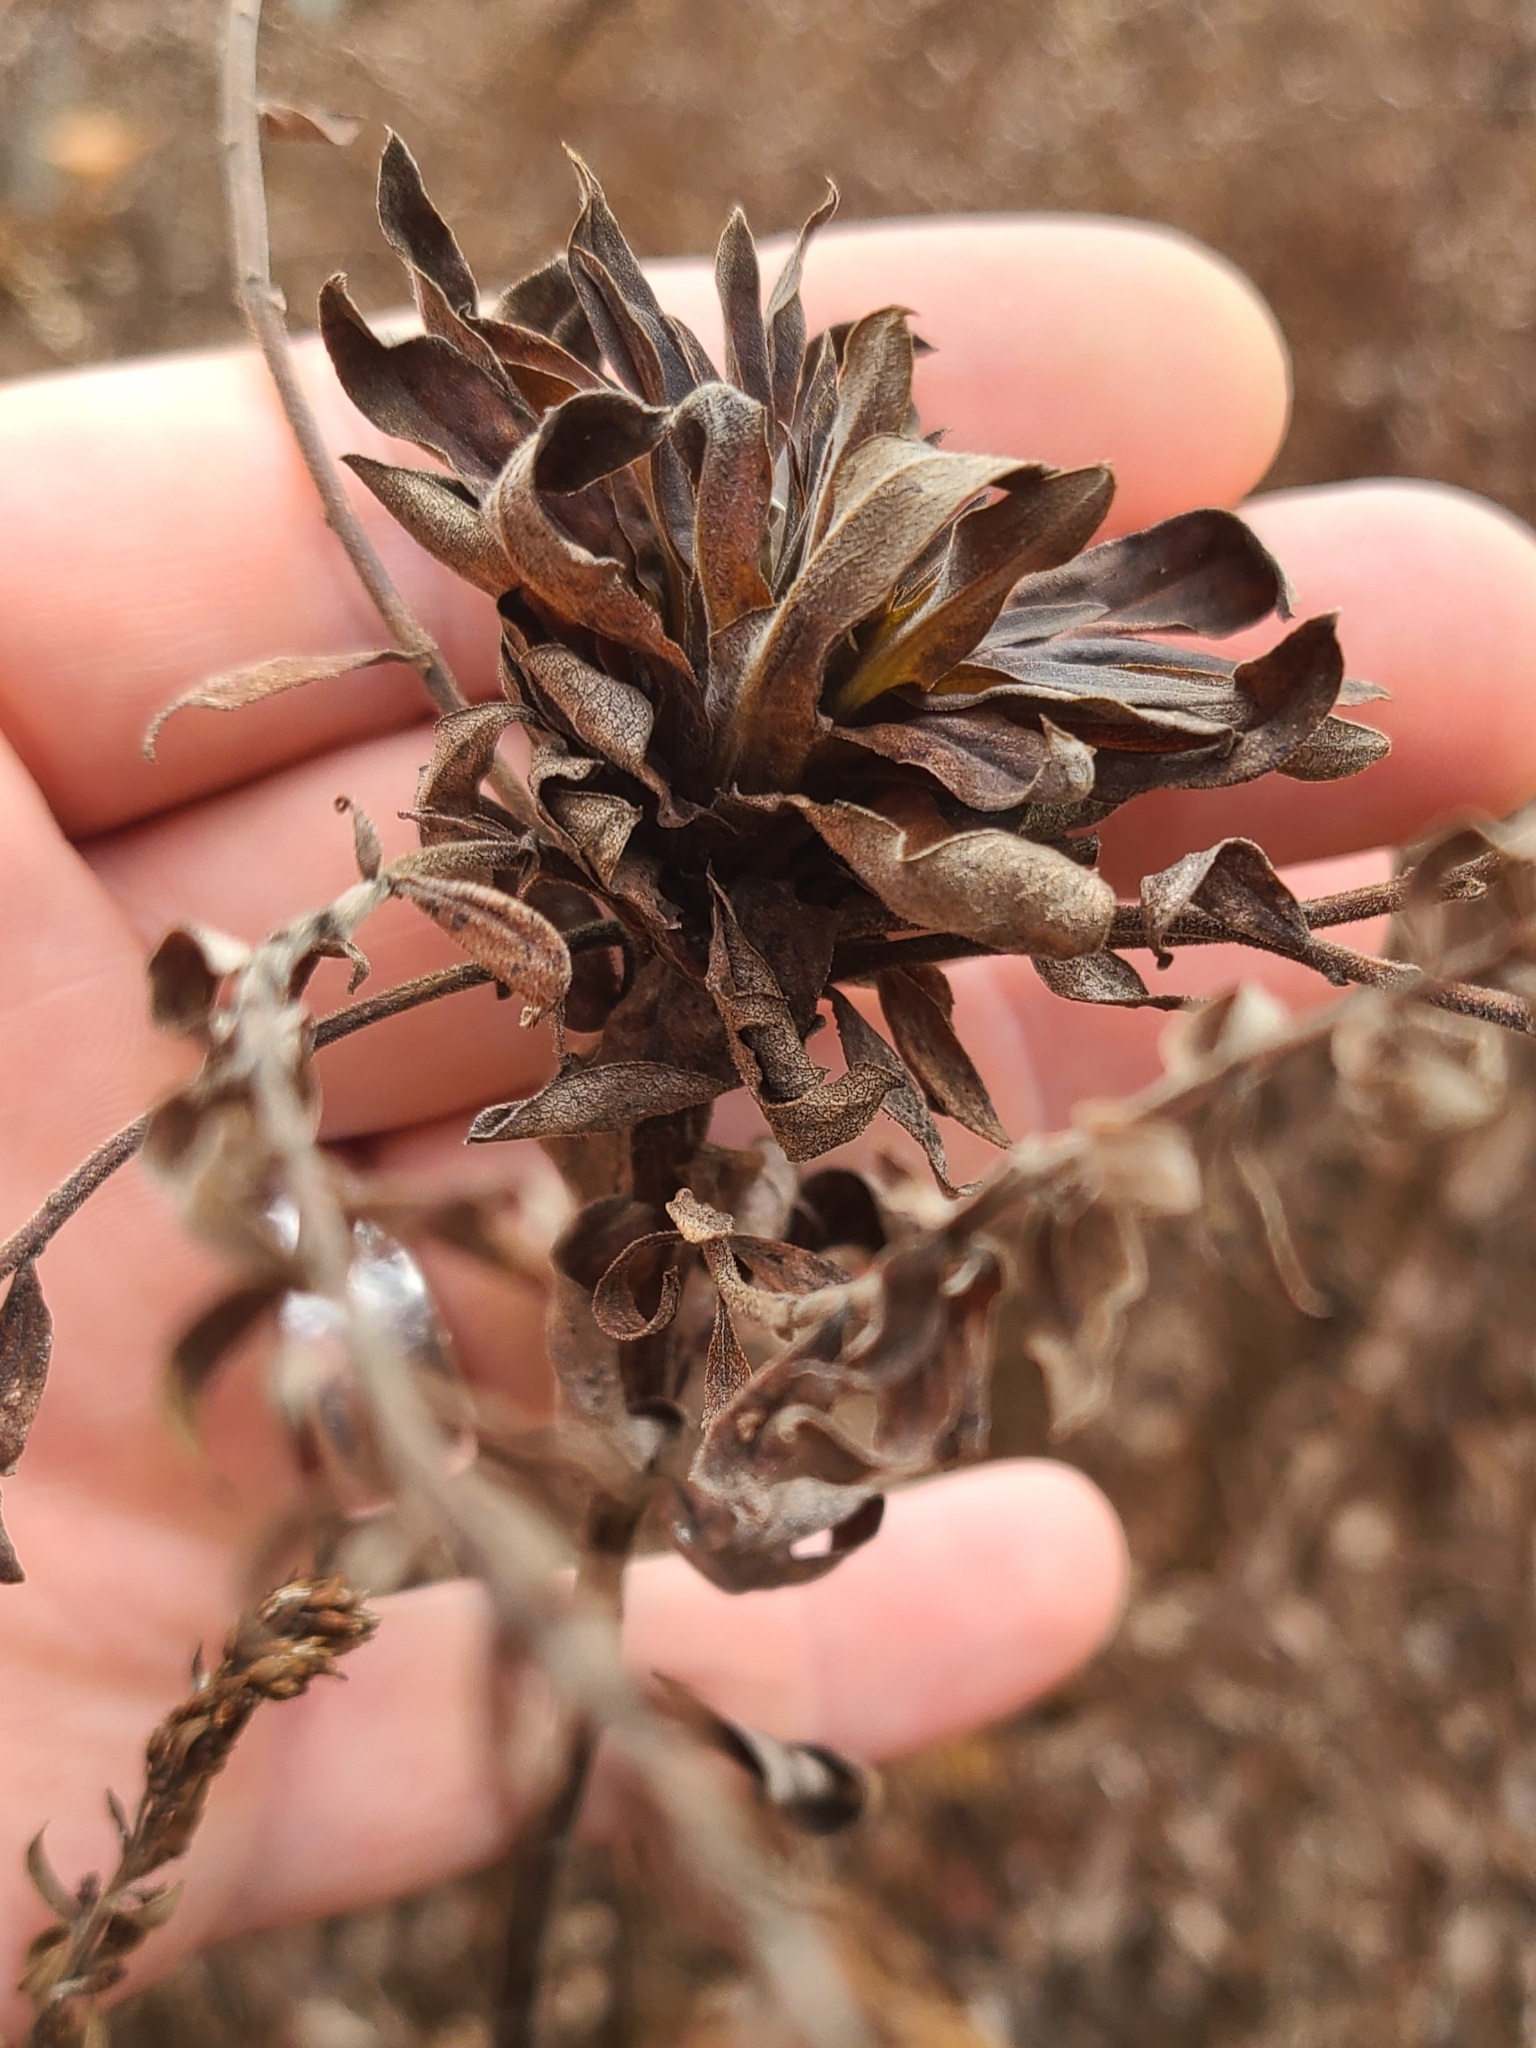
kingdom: Animalia
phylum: Arthropoda
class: Insecta
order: Diptera
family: Cecidomyiidae
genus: Rhopalomyia
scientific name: Rhopalomyia solidaginis
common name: Goldenrod bunch gall midge
